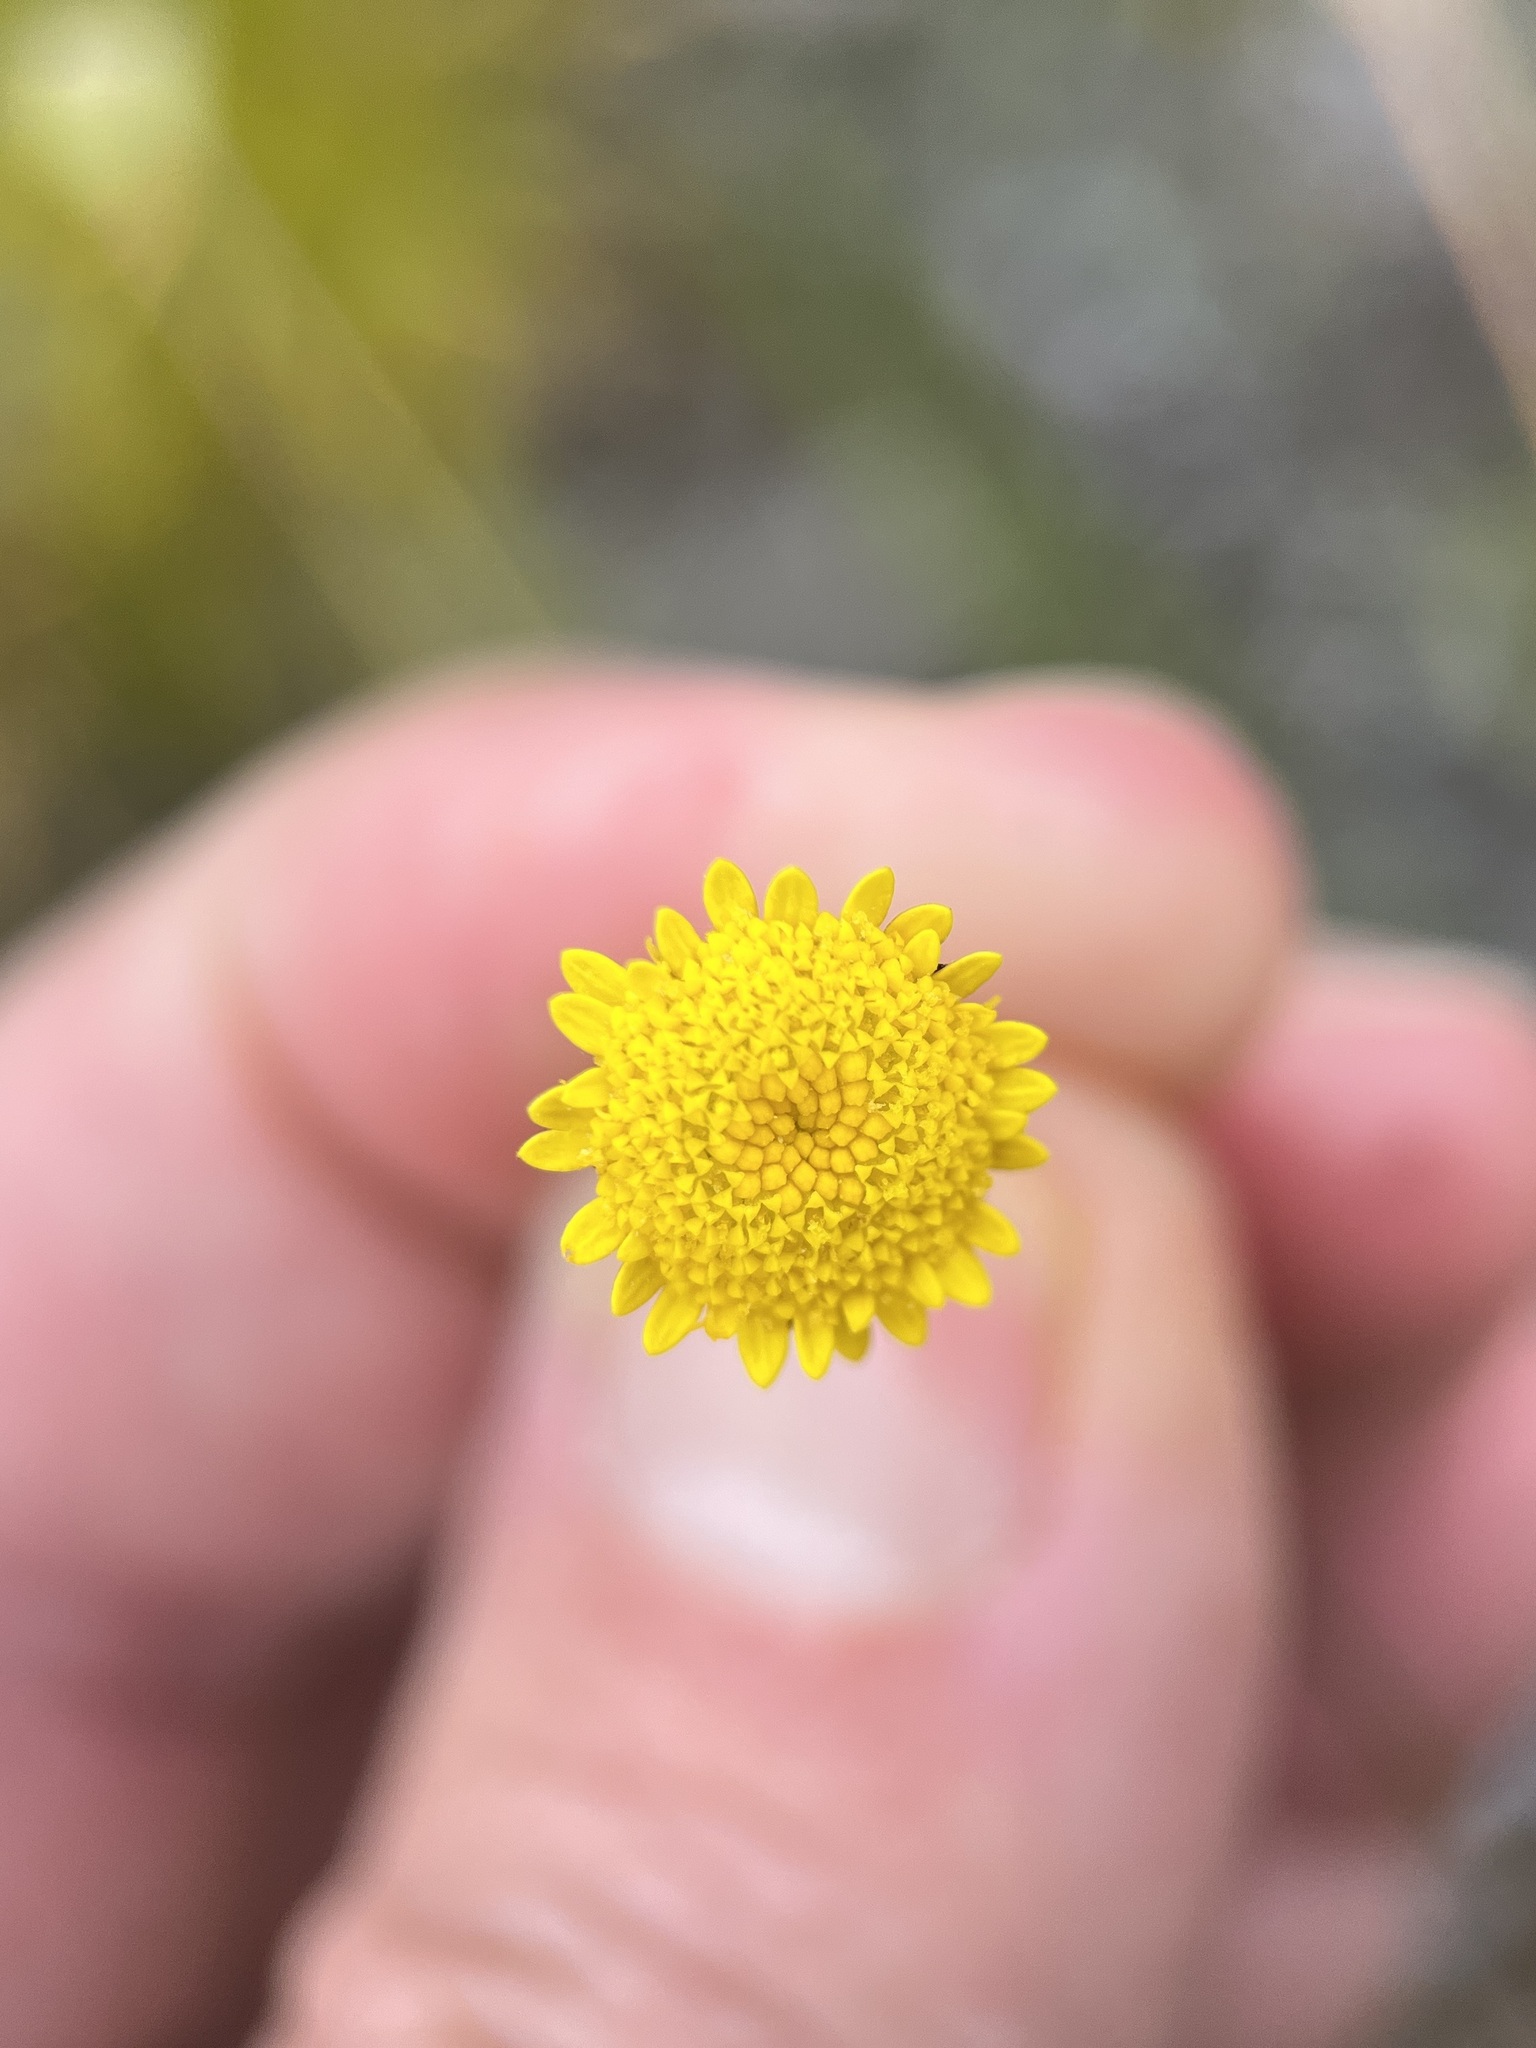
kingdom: Plantae
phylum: Tracheophyta
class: Magnoliopsida
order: Asterales
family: Asteraceae
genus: Cotula
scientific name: Cotula pruinosa
